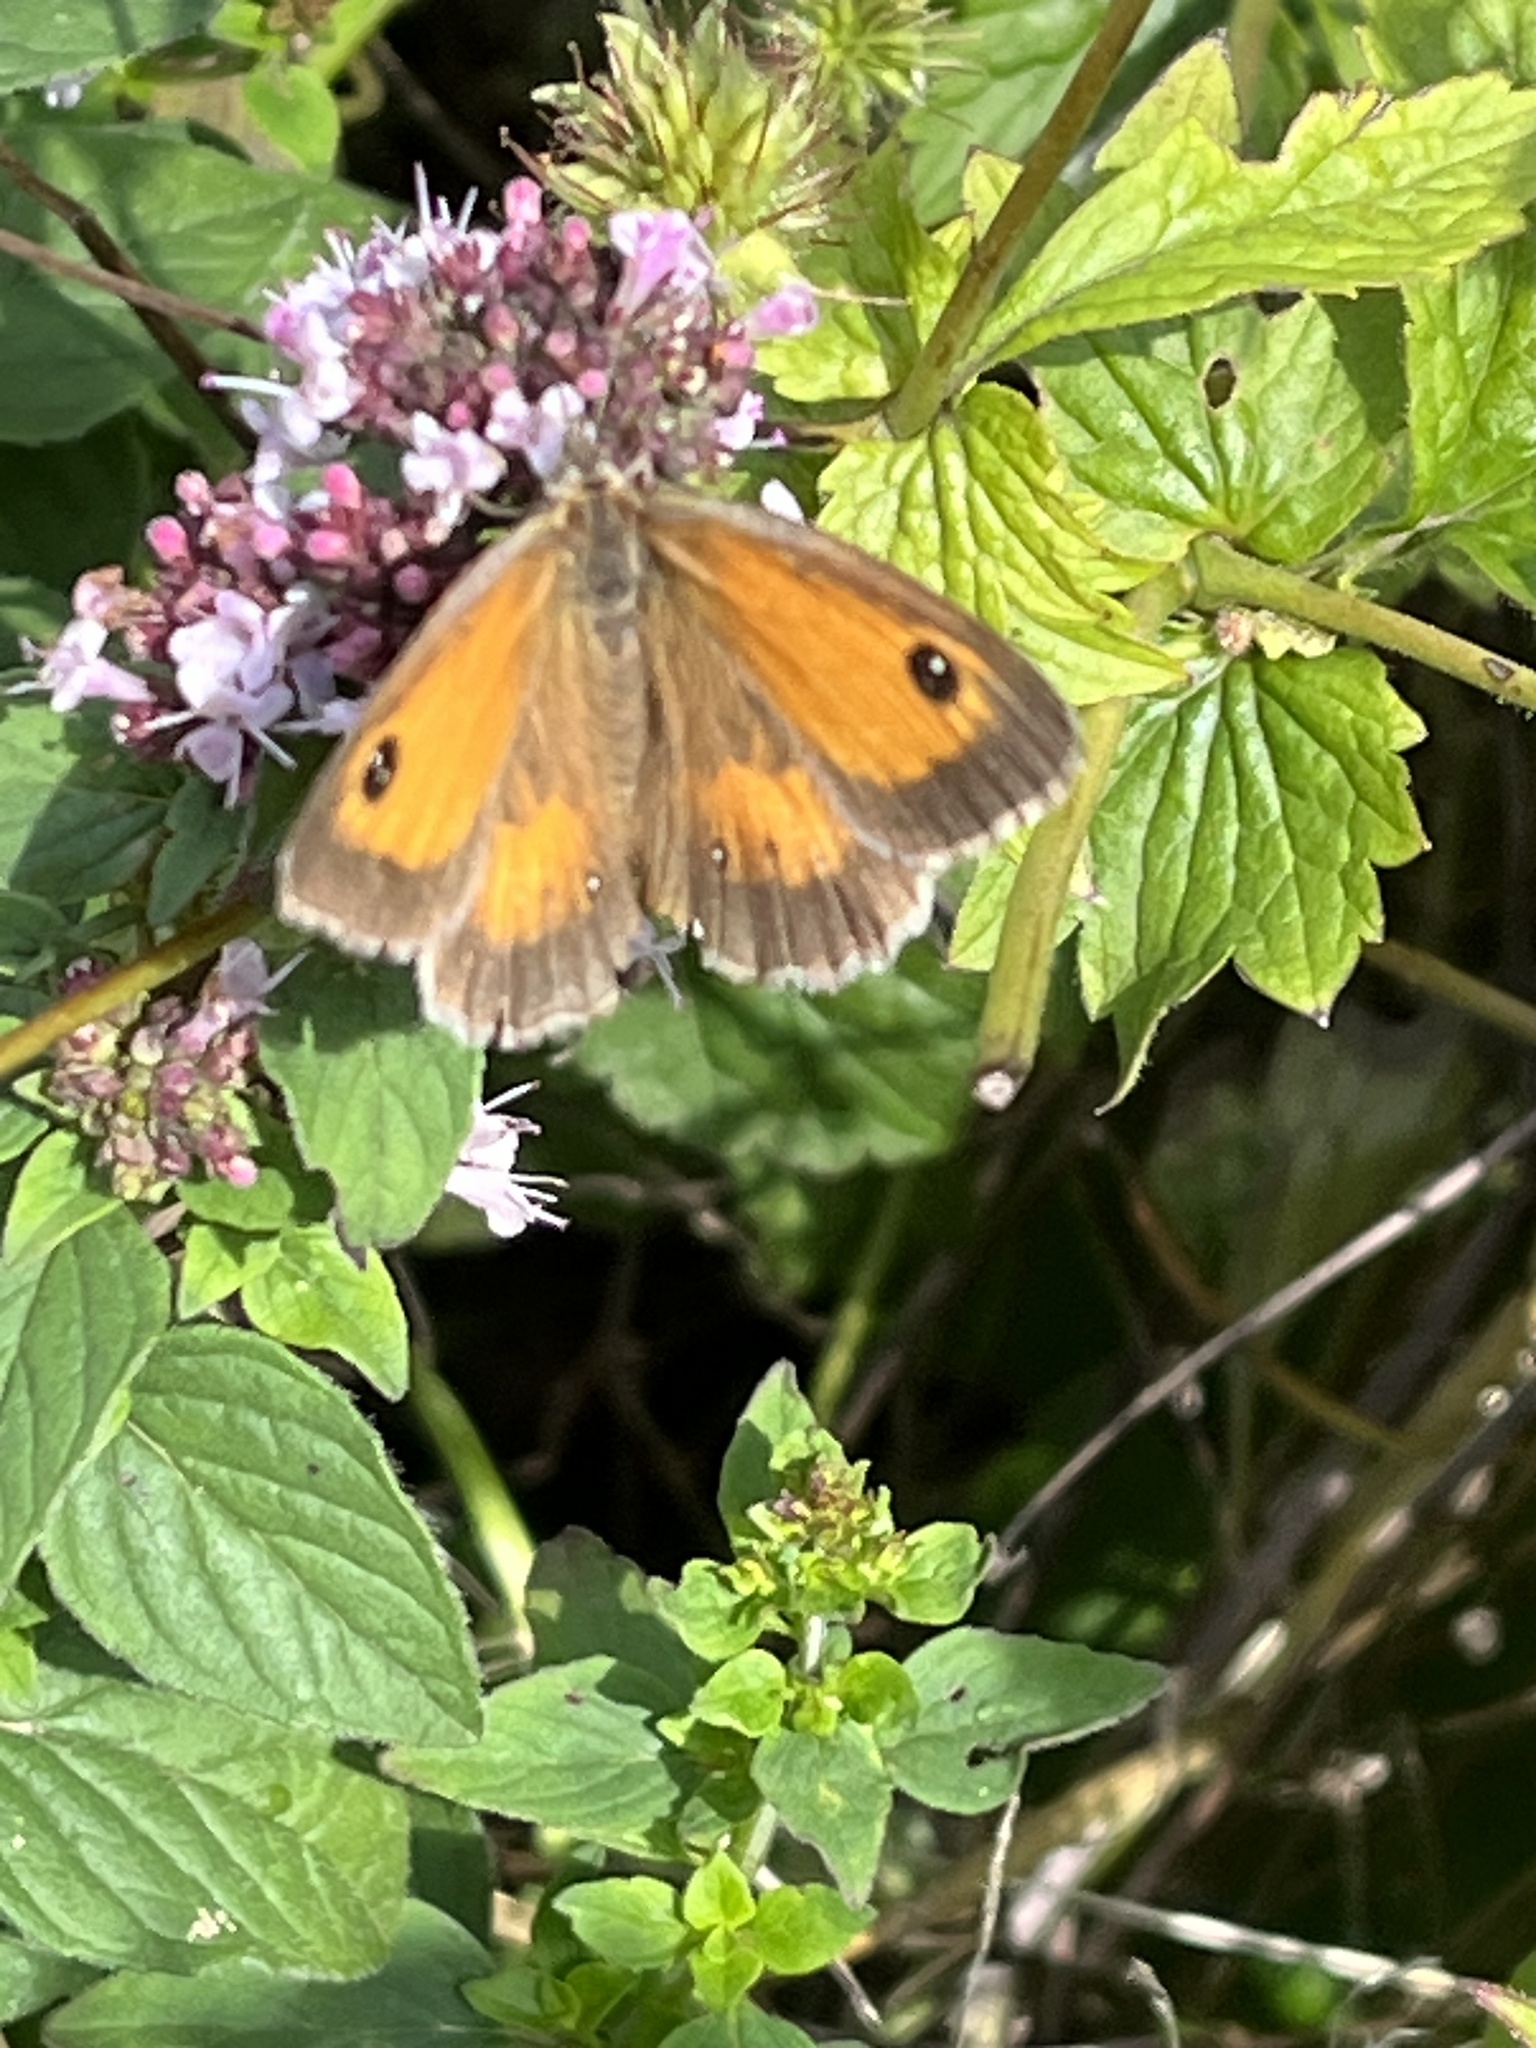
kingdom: Animalia
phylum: Arthropoda
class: Insecta
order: Lepidoptera
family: Nymphalidae
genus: Pyronia
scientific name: Pyronia tithonus
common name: Gatekeeper
